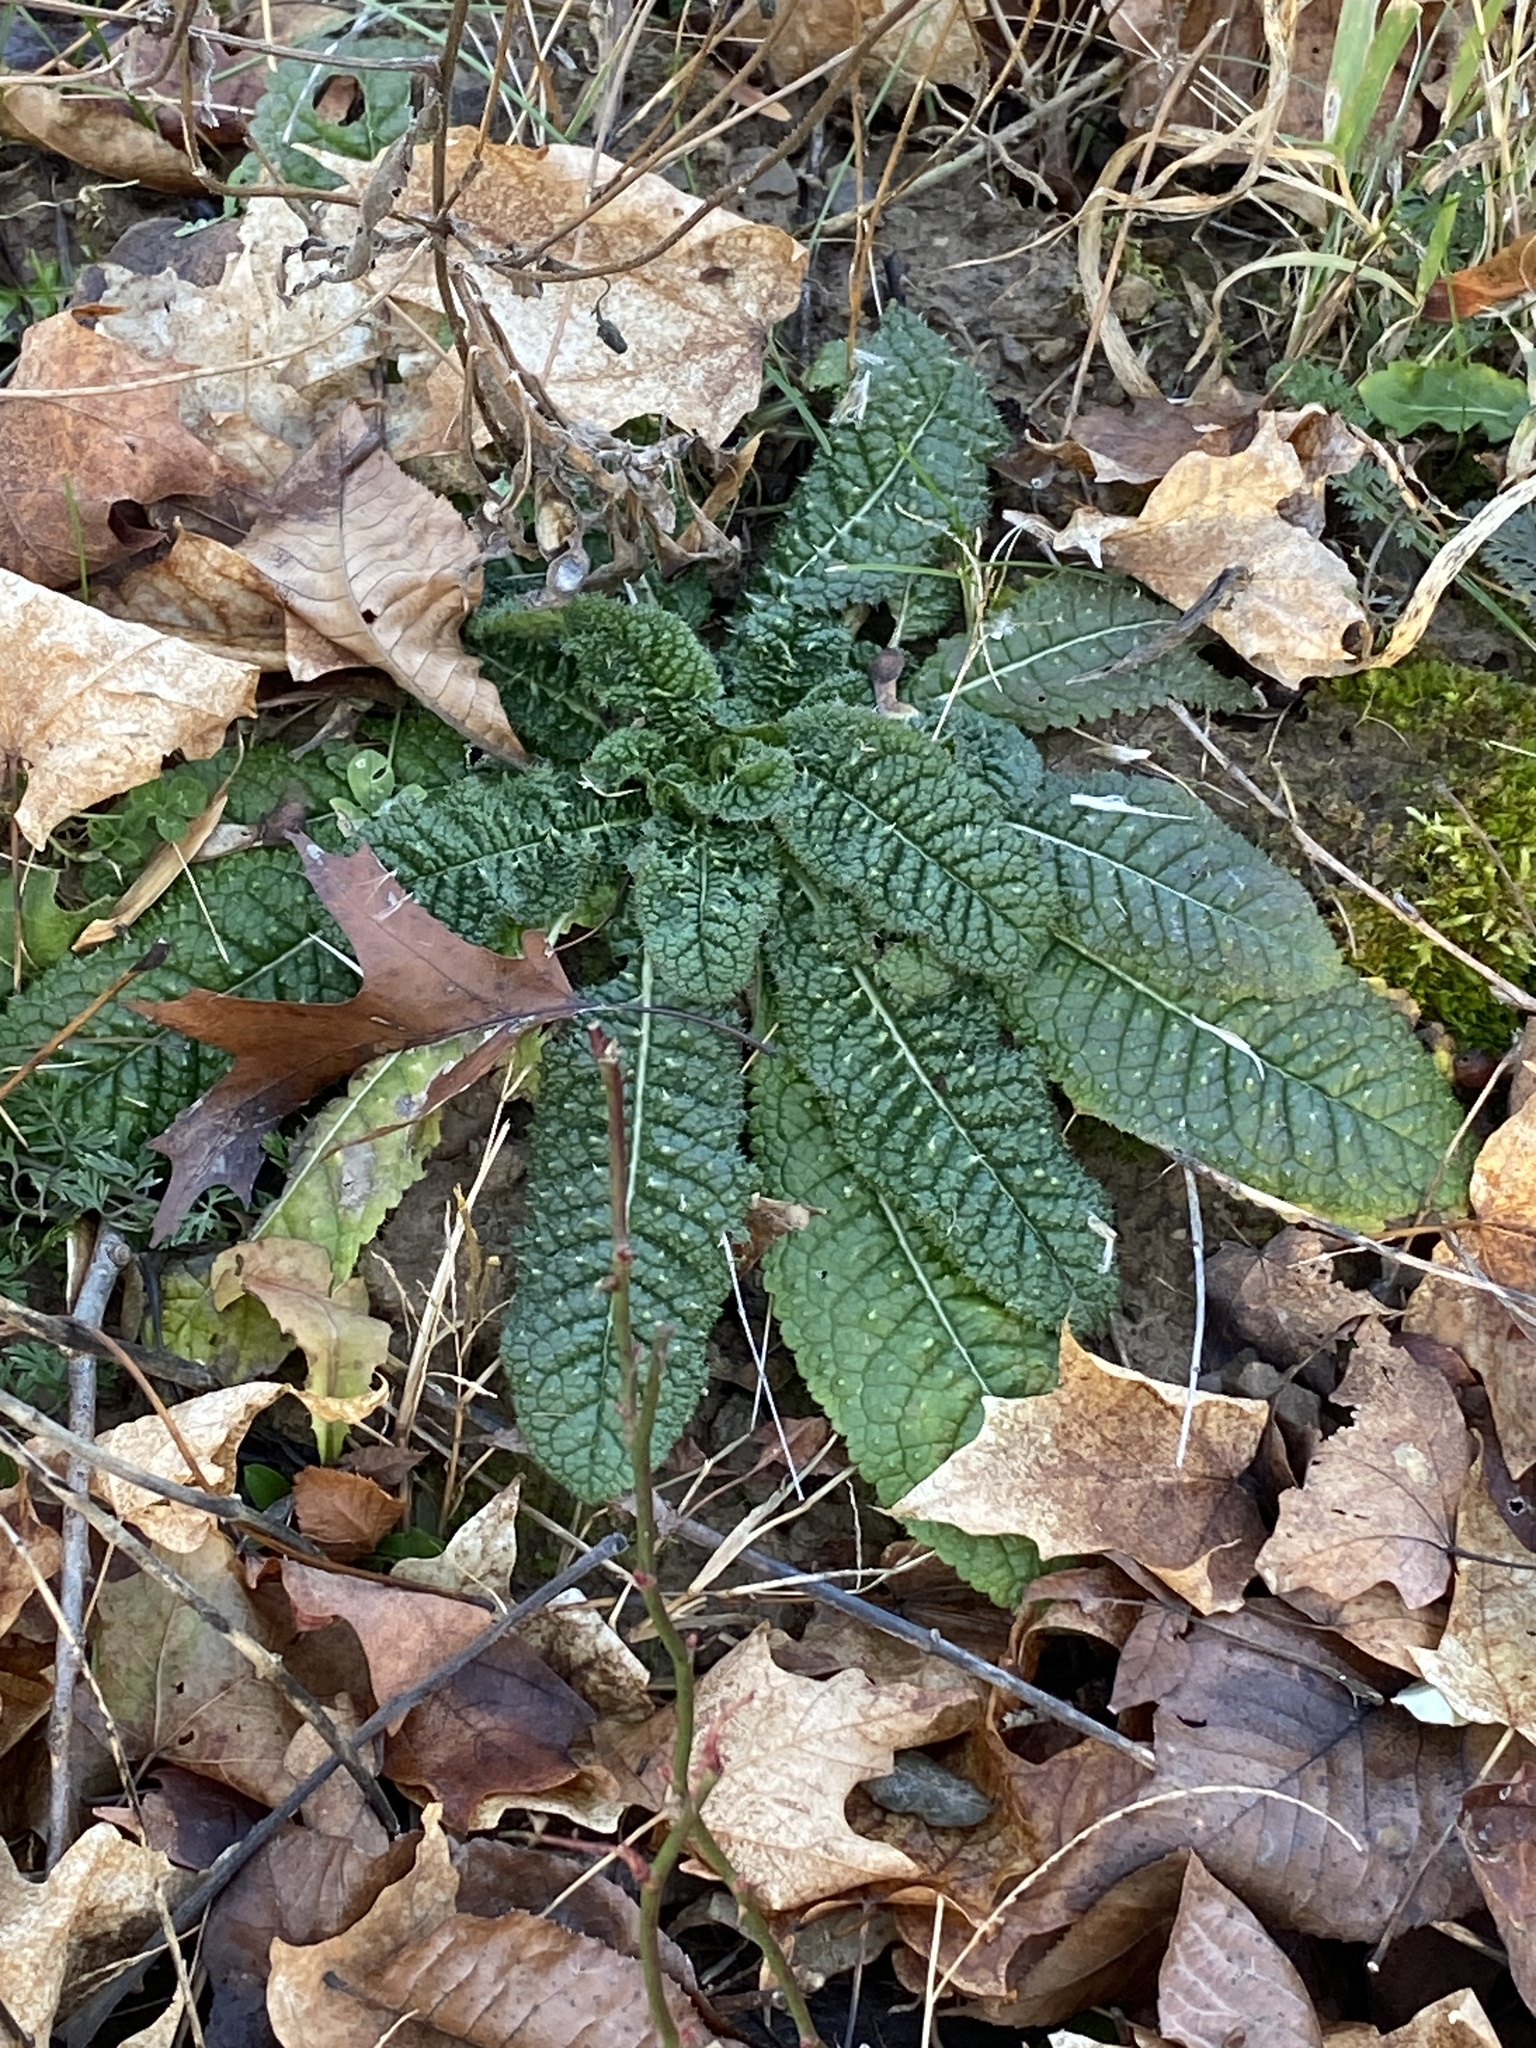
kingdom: Plantae
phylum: Tracheophyta
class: Magnoliopsida
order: Dipsacales
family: Caprifoliaceae
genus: Dipsacus
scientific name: Dipsacus fullonum
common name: Teasel
